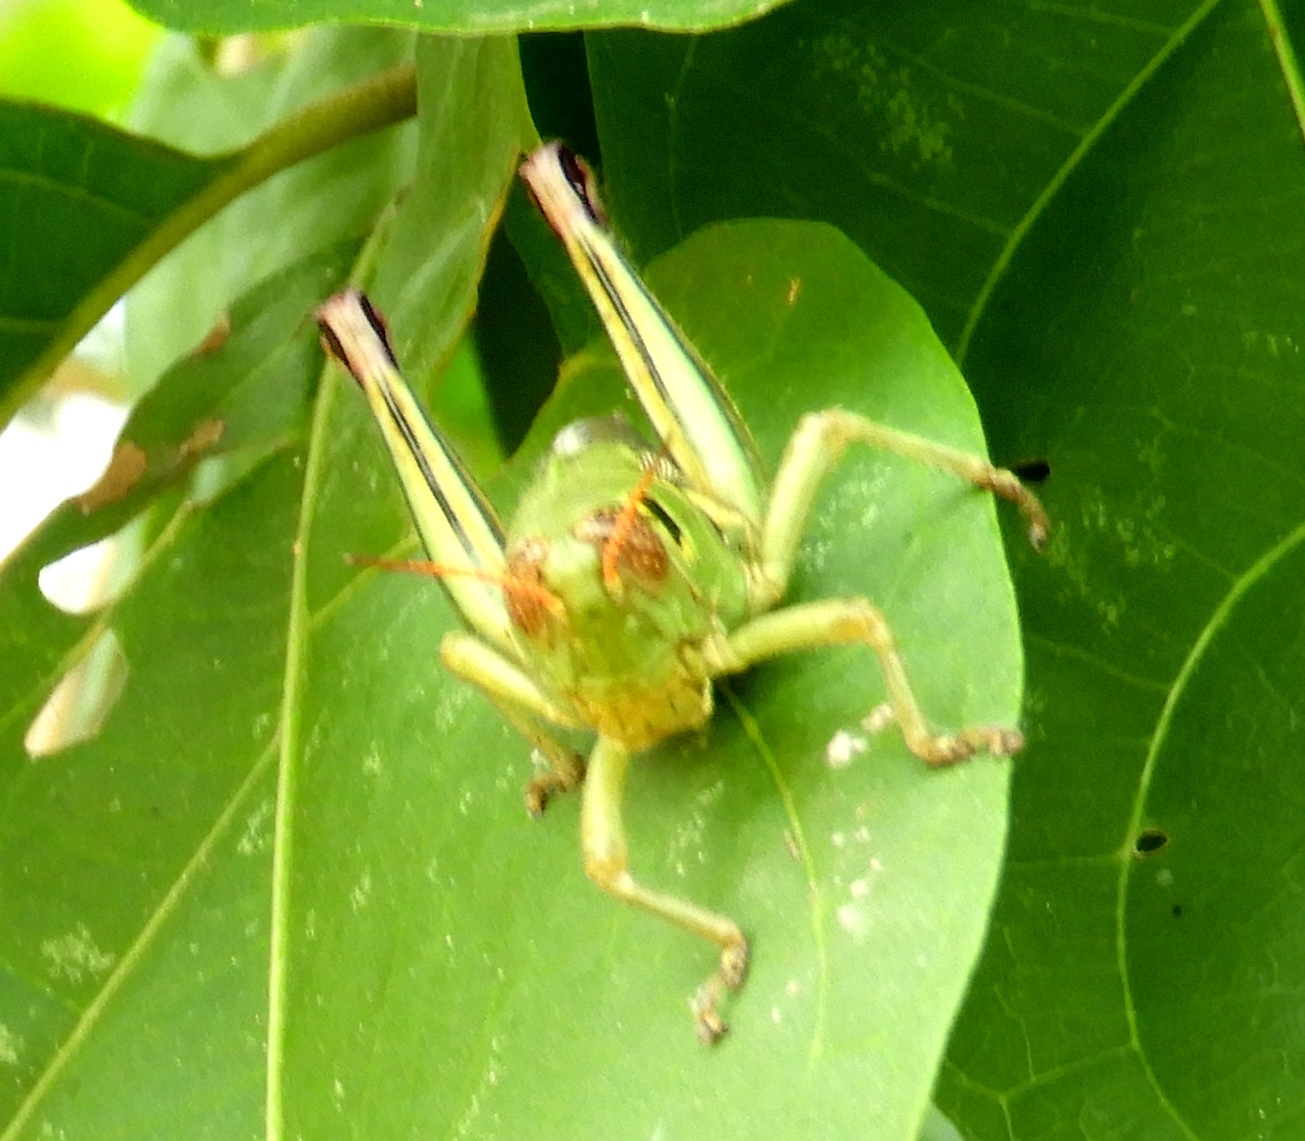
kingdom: Animalia
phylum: Arthropoda
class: Insecta
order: Orthoptera
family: Acrididae
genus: Barytettix
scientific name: Barytettix
